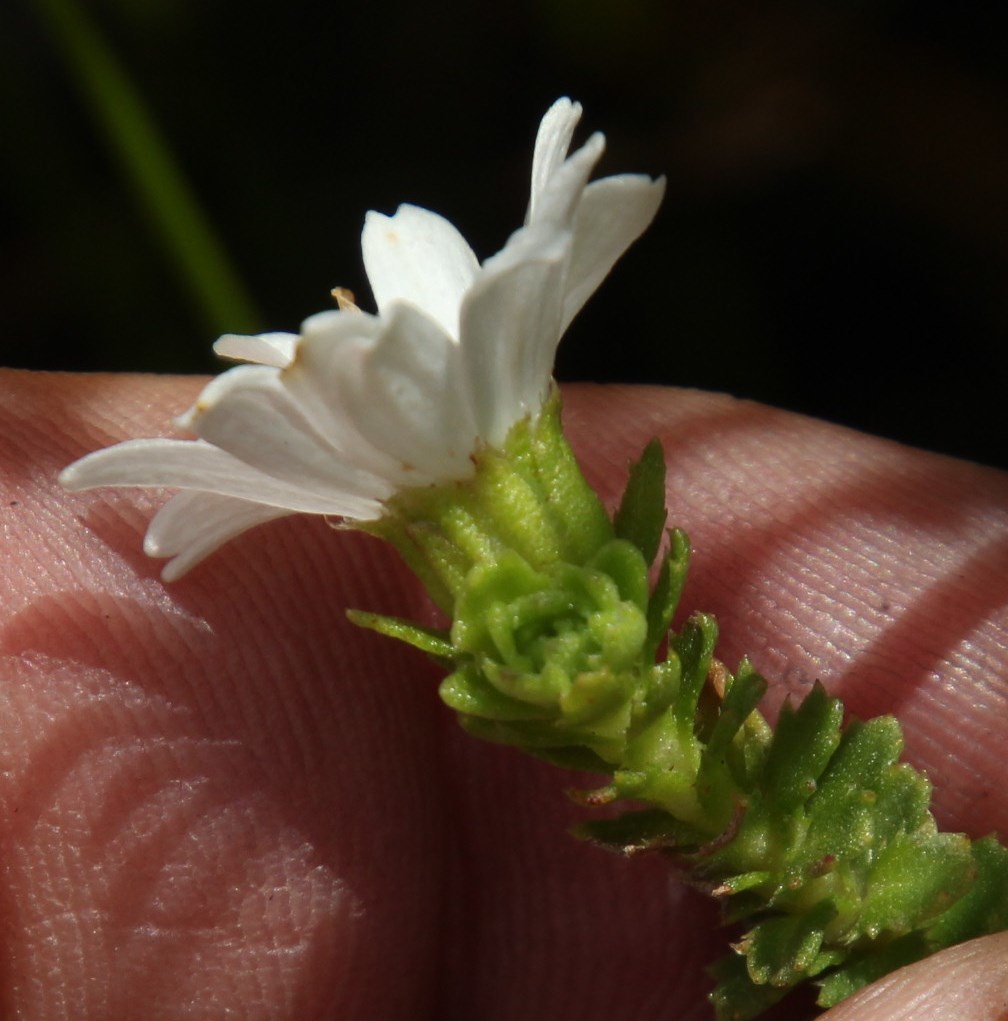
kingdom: Plantae
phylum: Tracheophyta
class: Magnoliopsida
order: Asterales
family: Asteraceae
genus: Osmitopsis
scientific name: Osmitopsis parvifolia
